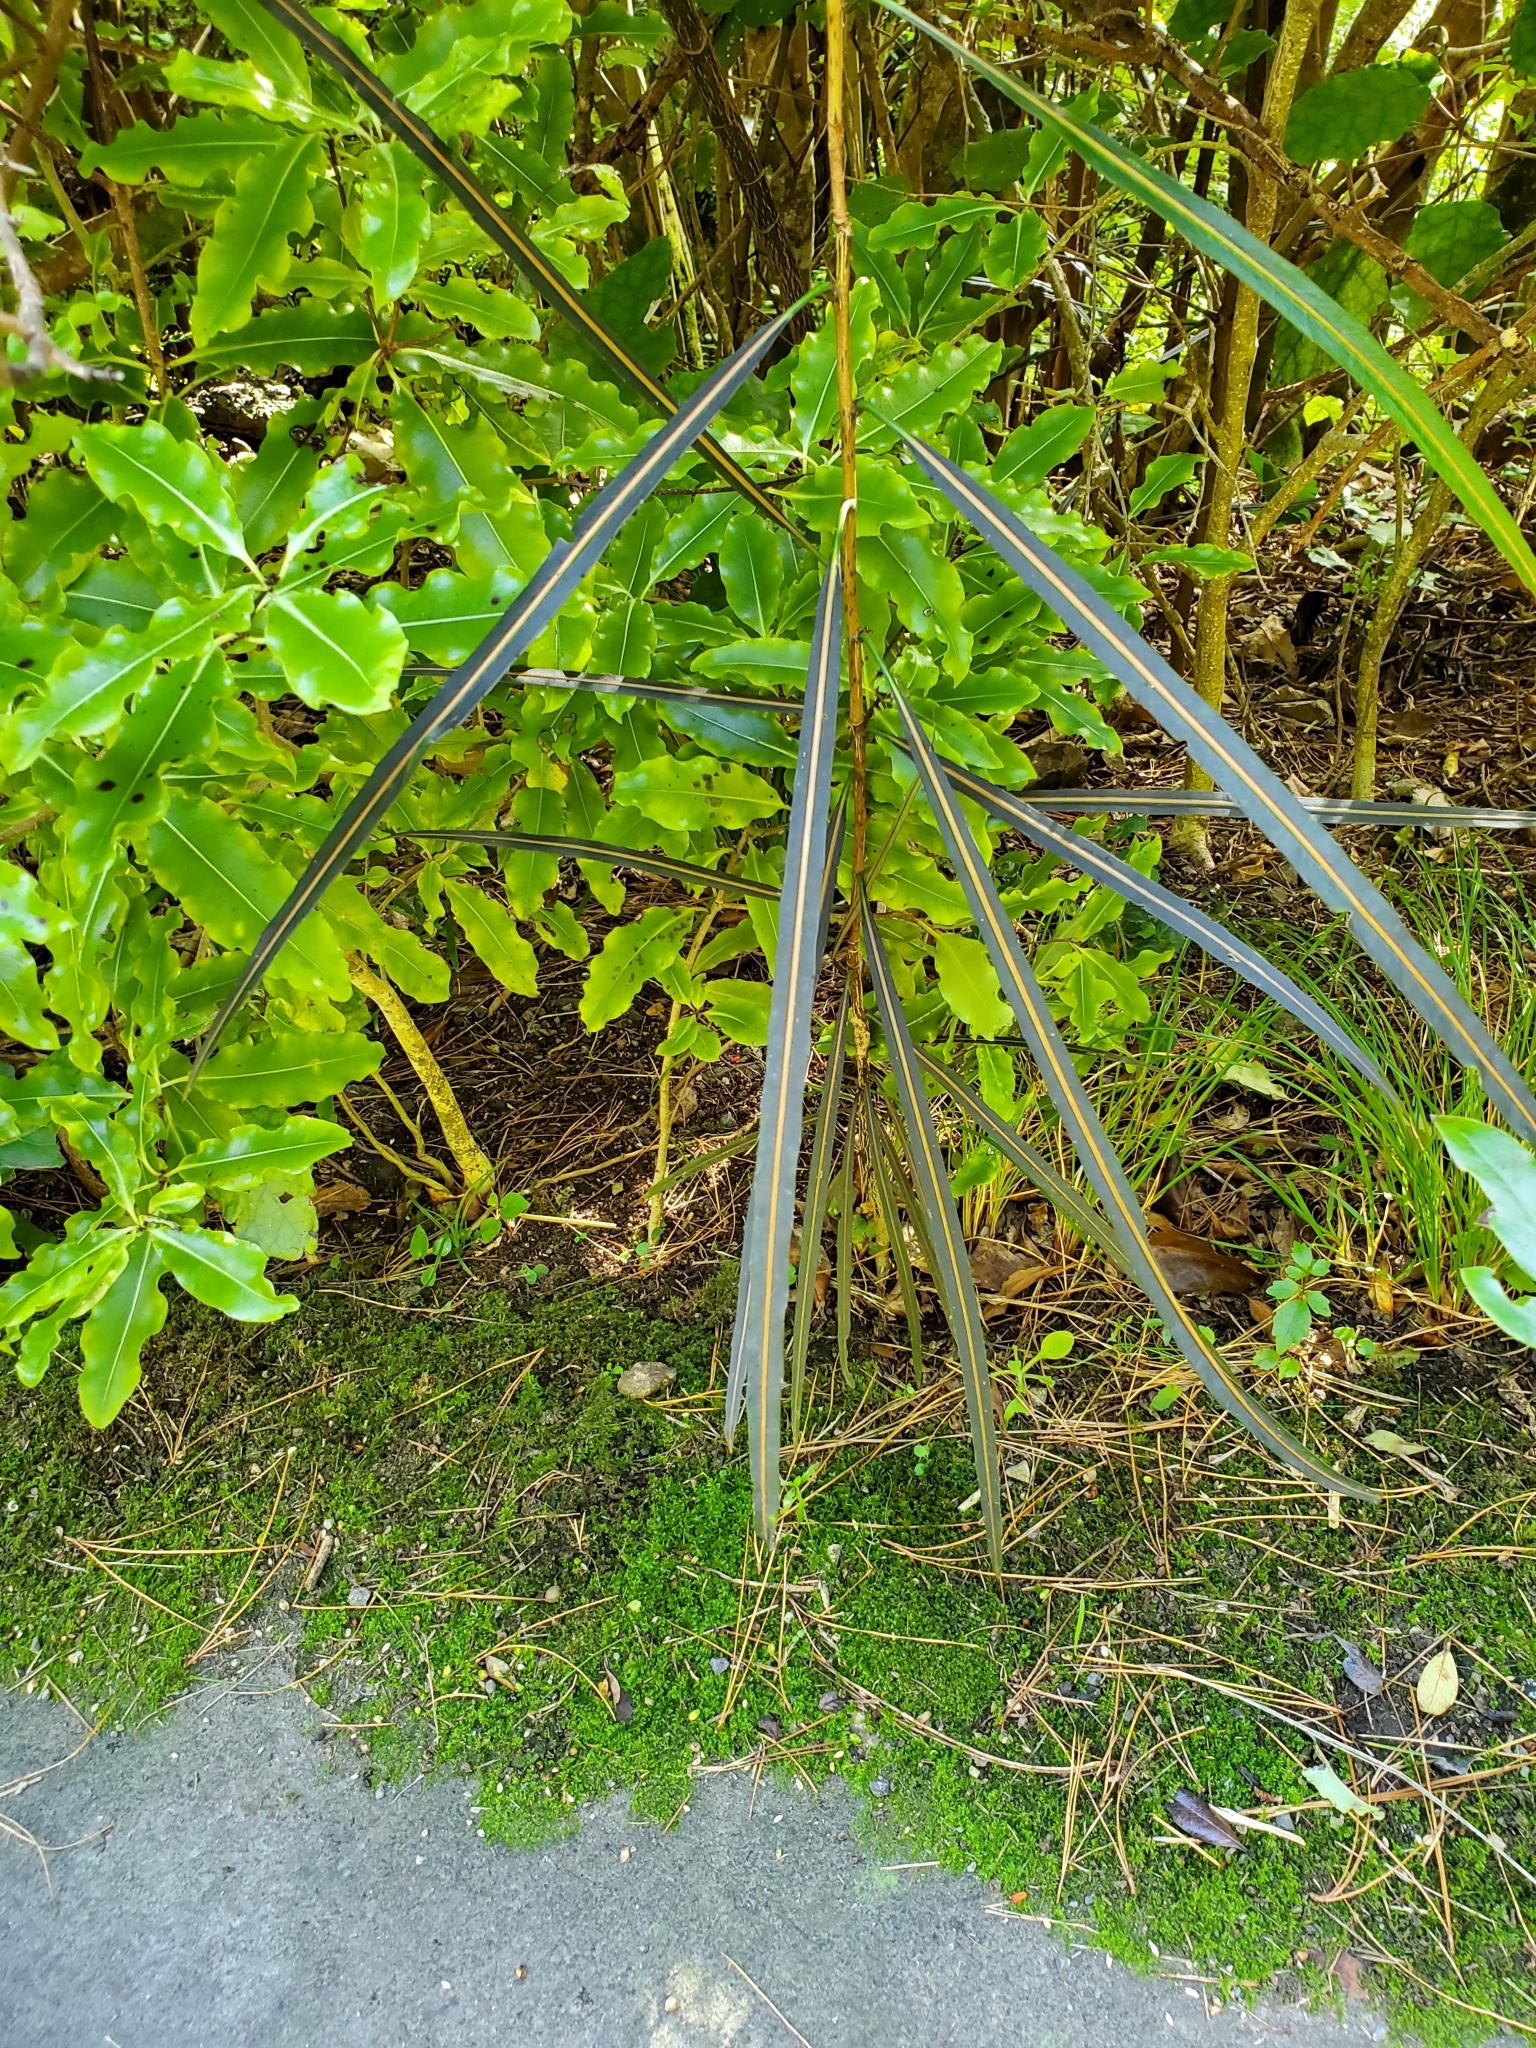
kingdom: Plantae
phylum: Tracheophyta
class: Magnoliopsida
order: Apiales
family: Araliaceae
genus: Pseudopanax
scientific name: Pseudopanax crassifolius
